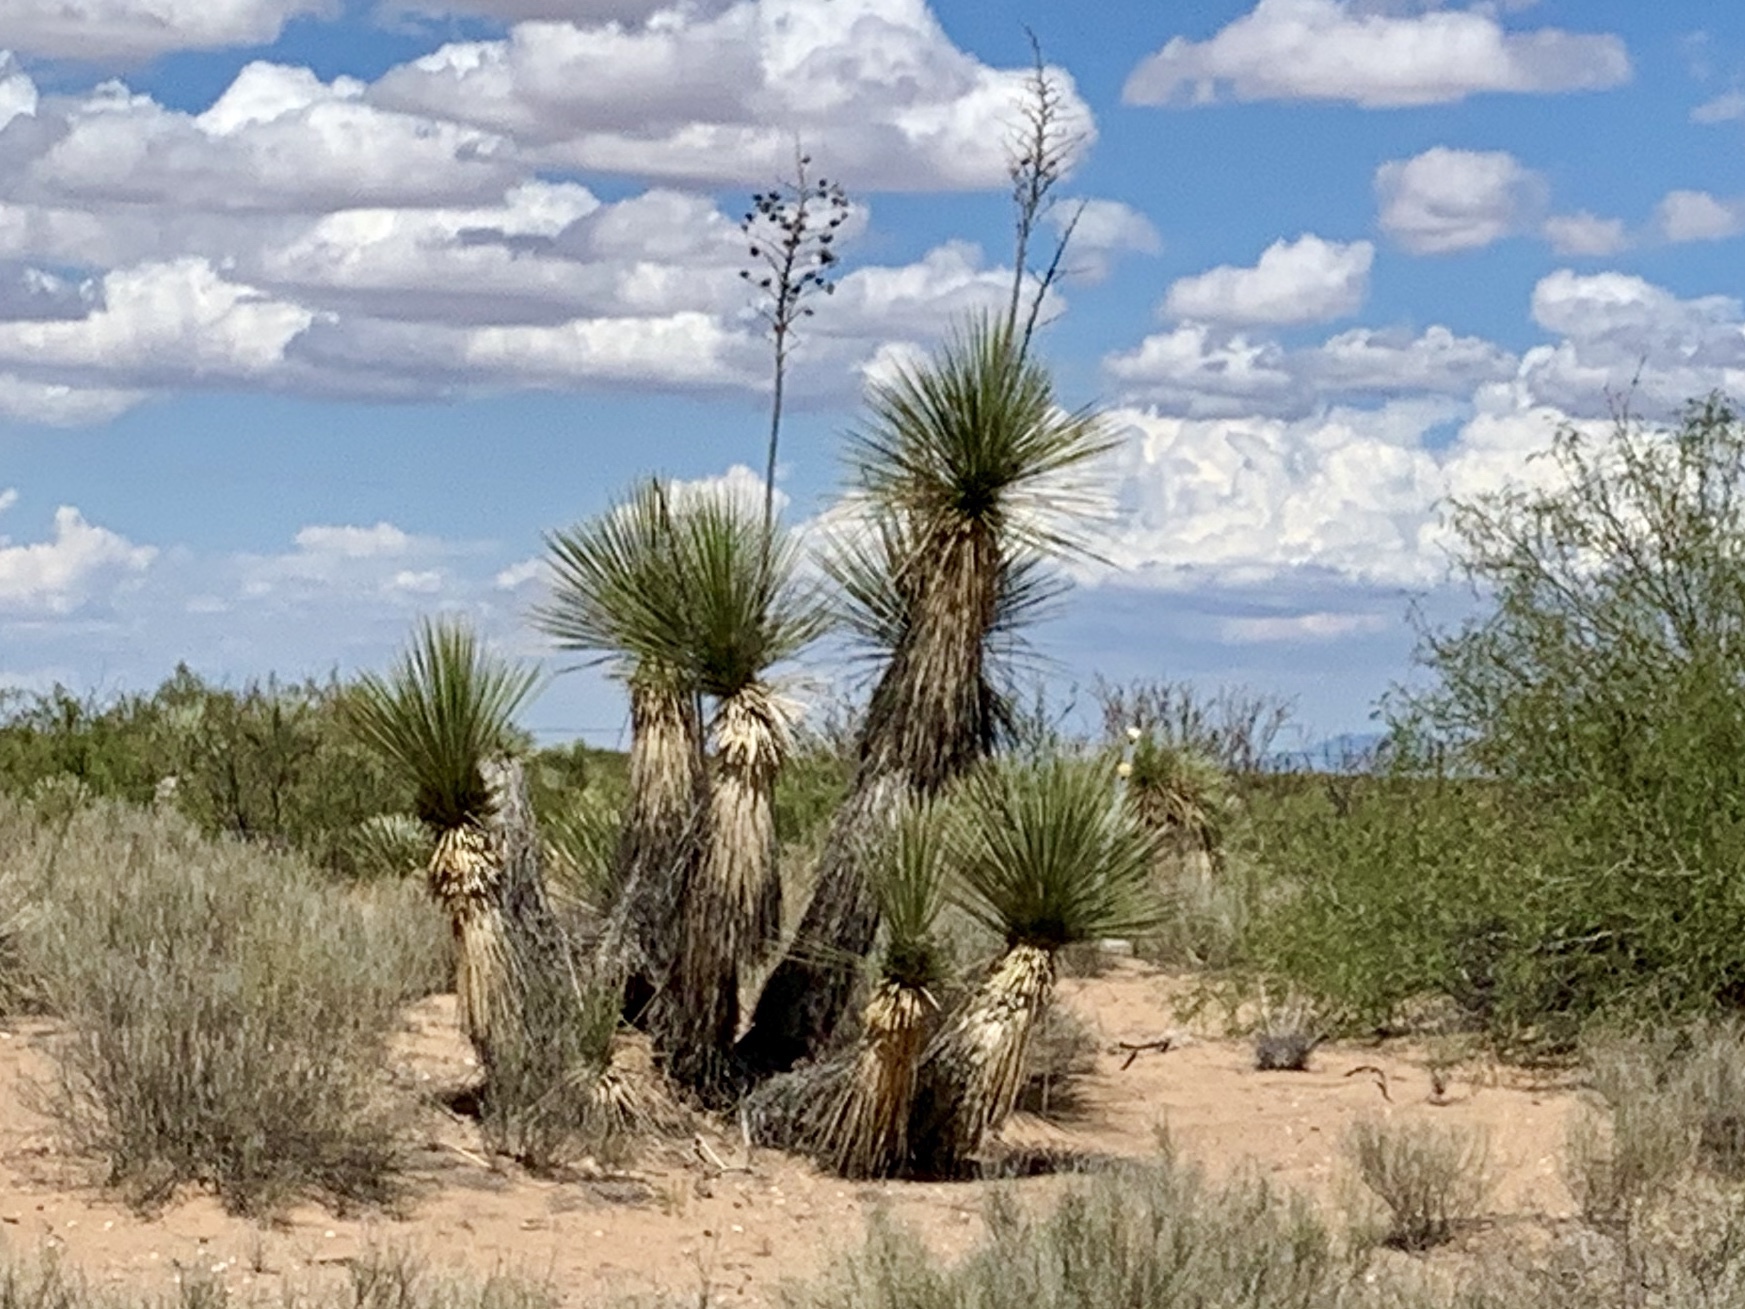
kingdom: Plantae
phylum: Tracheophyta
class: Liliopsida
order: Asparagales
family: Asparagaceae
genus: Yucca
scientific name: Yucca elata
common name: Palmella
